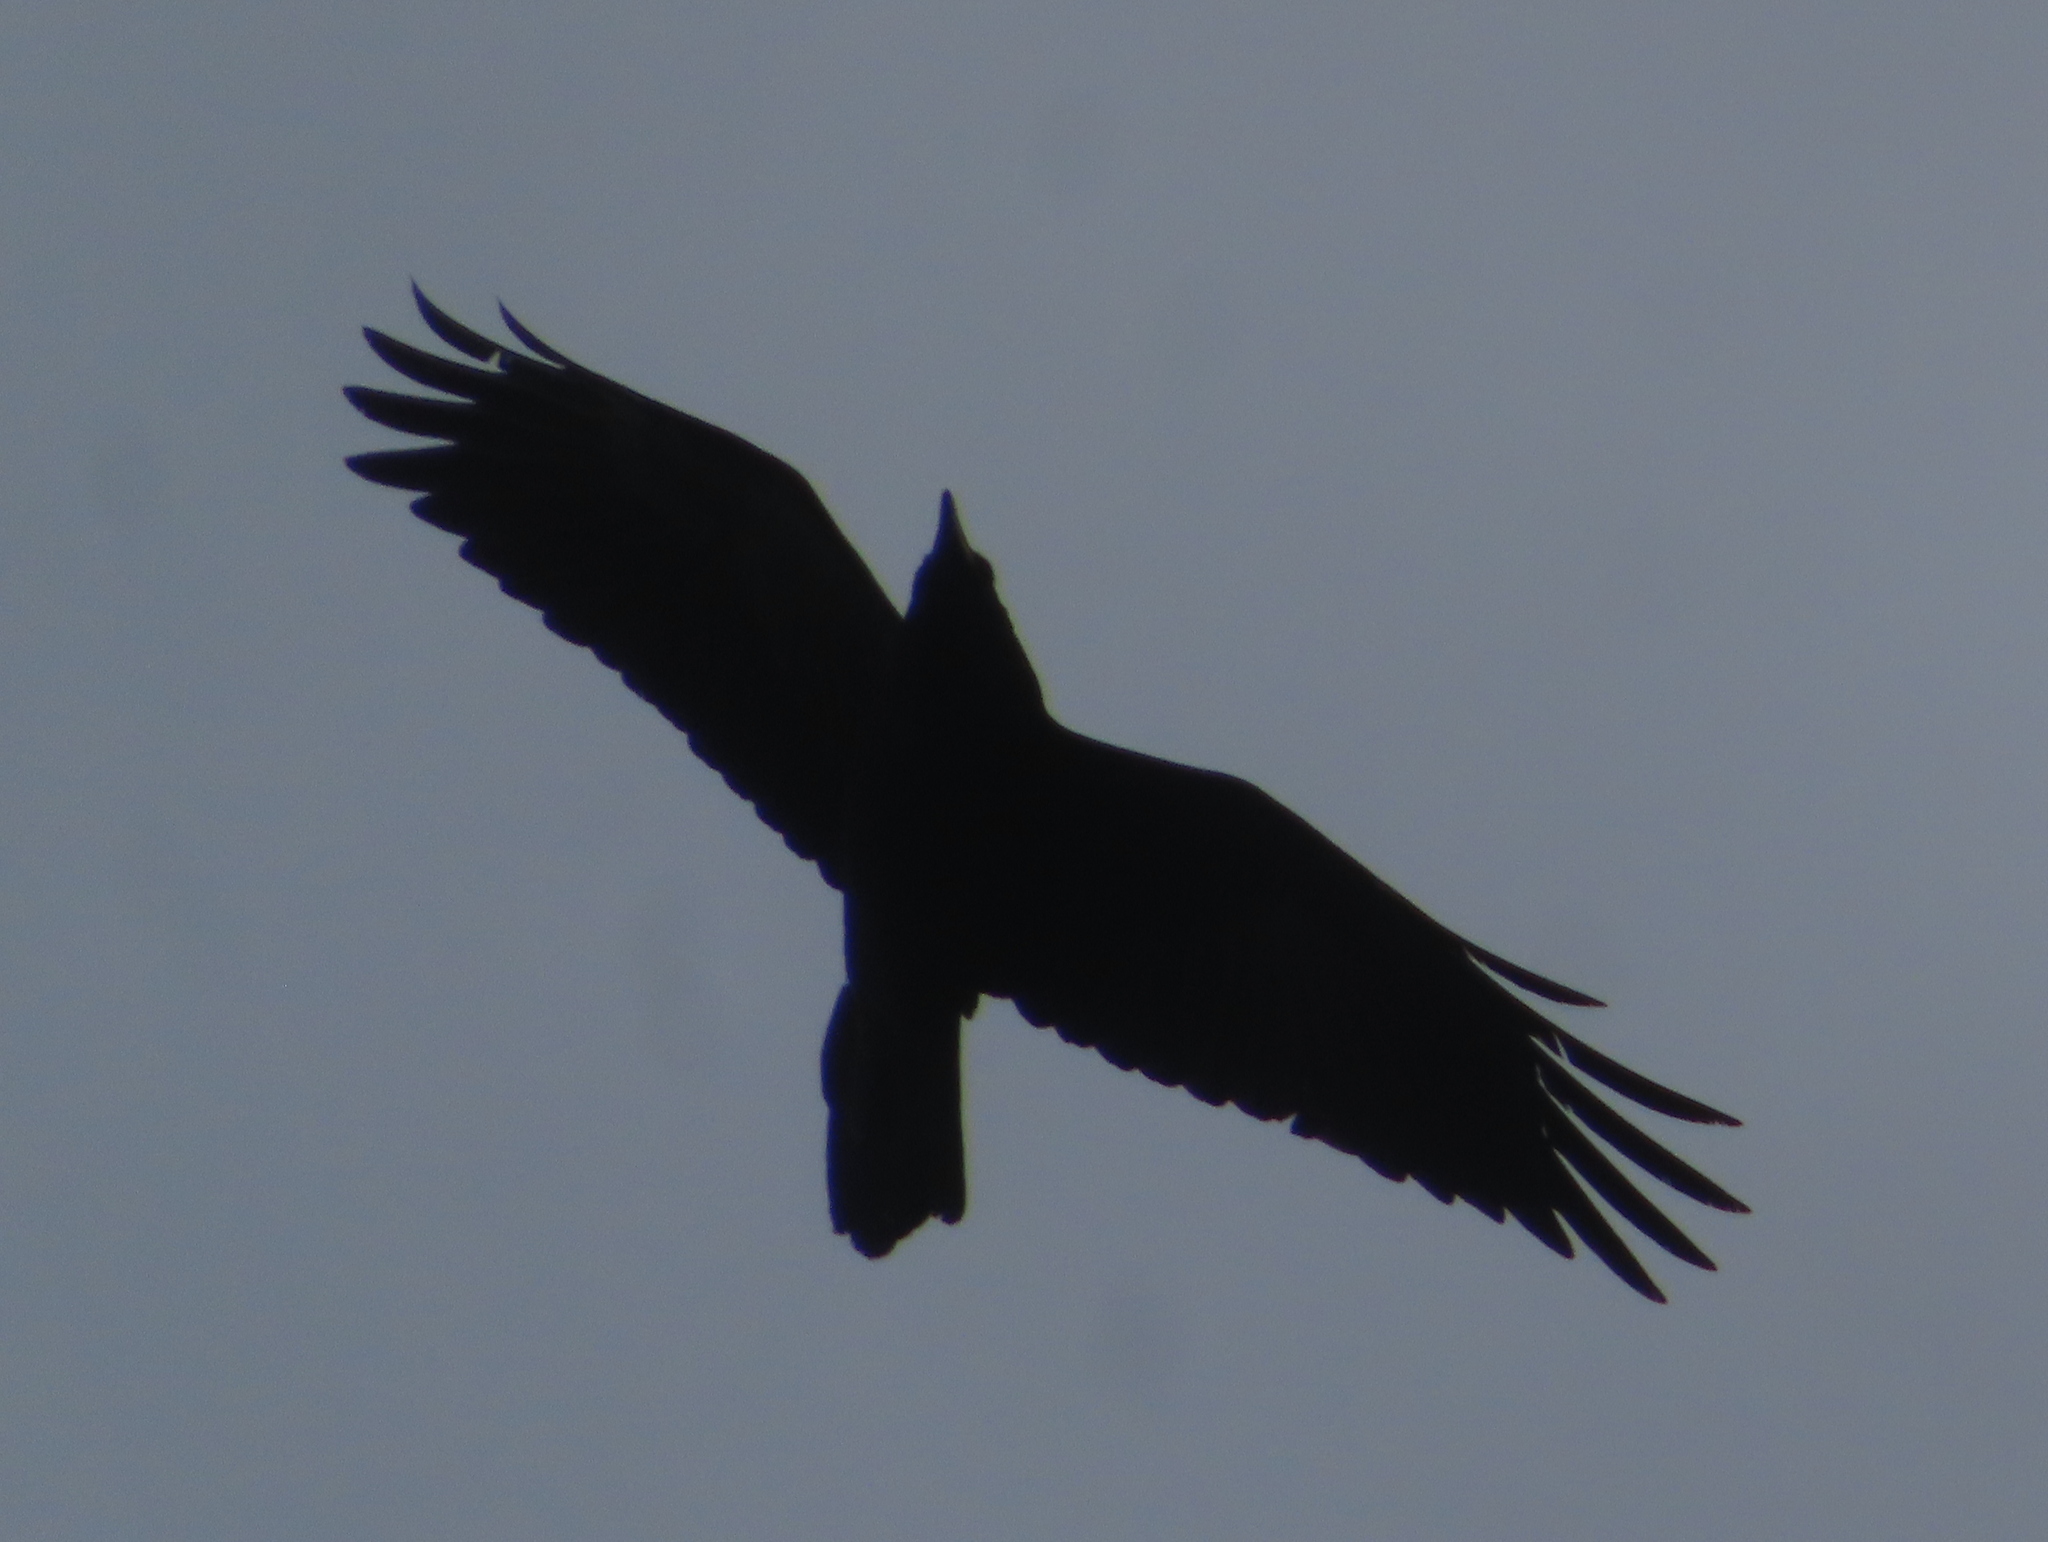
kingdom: Animalia
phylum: Chordata
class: Aves
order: Passeriformes
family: Corvidae
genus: Corvus
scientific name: Corvus corax
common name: Common raven
